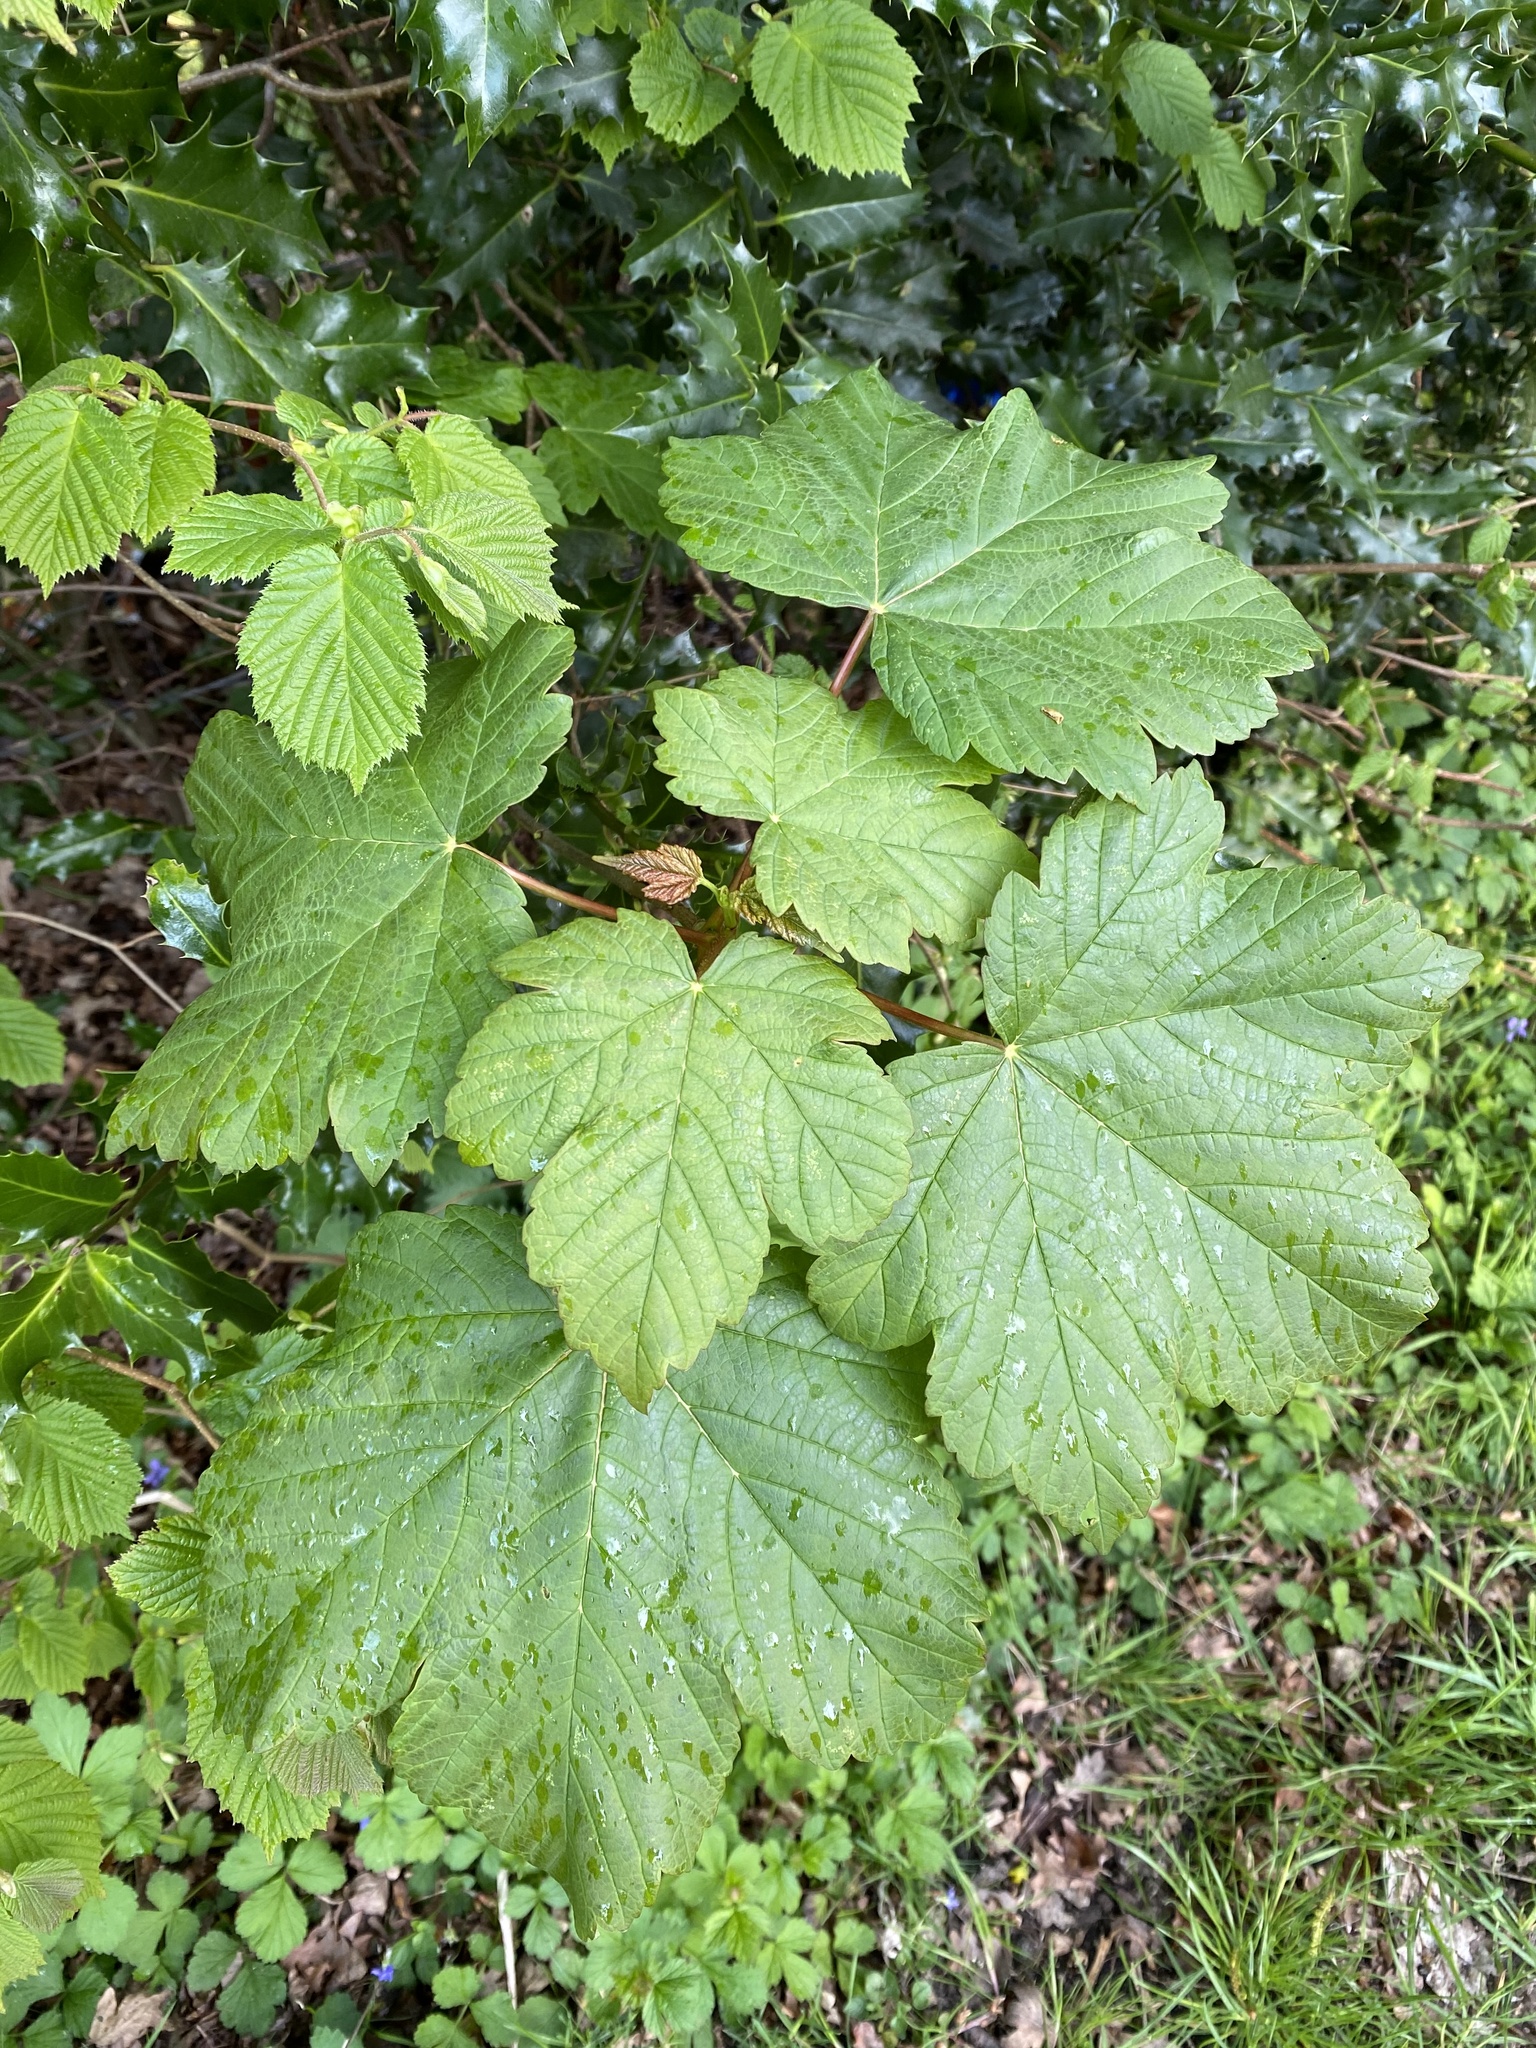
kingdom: Plantae
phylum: Tracheophyta
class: Magnoliopsida
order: Sapindales
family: Sapindaceae
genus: Acer
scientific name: Acer pseudoplatanus
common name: Sycamore
